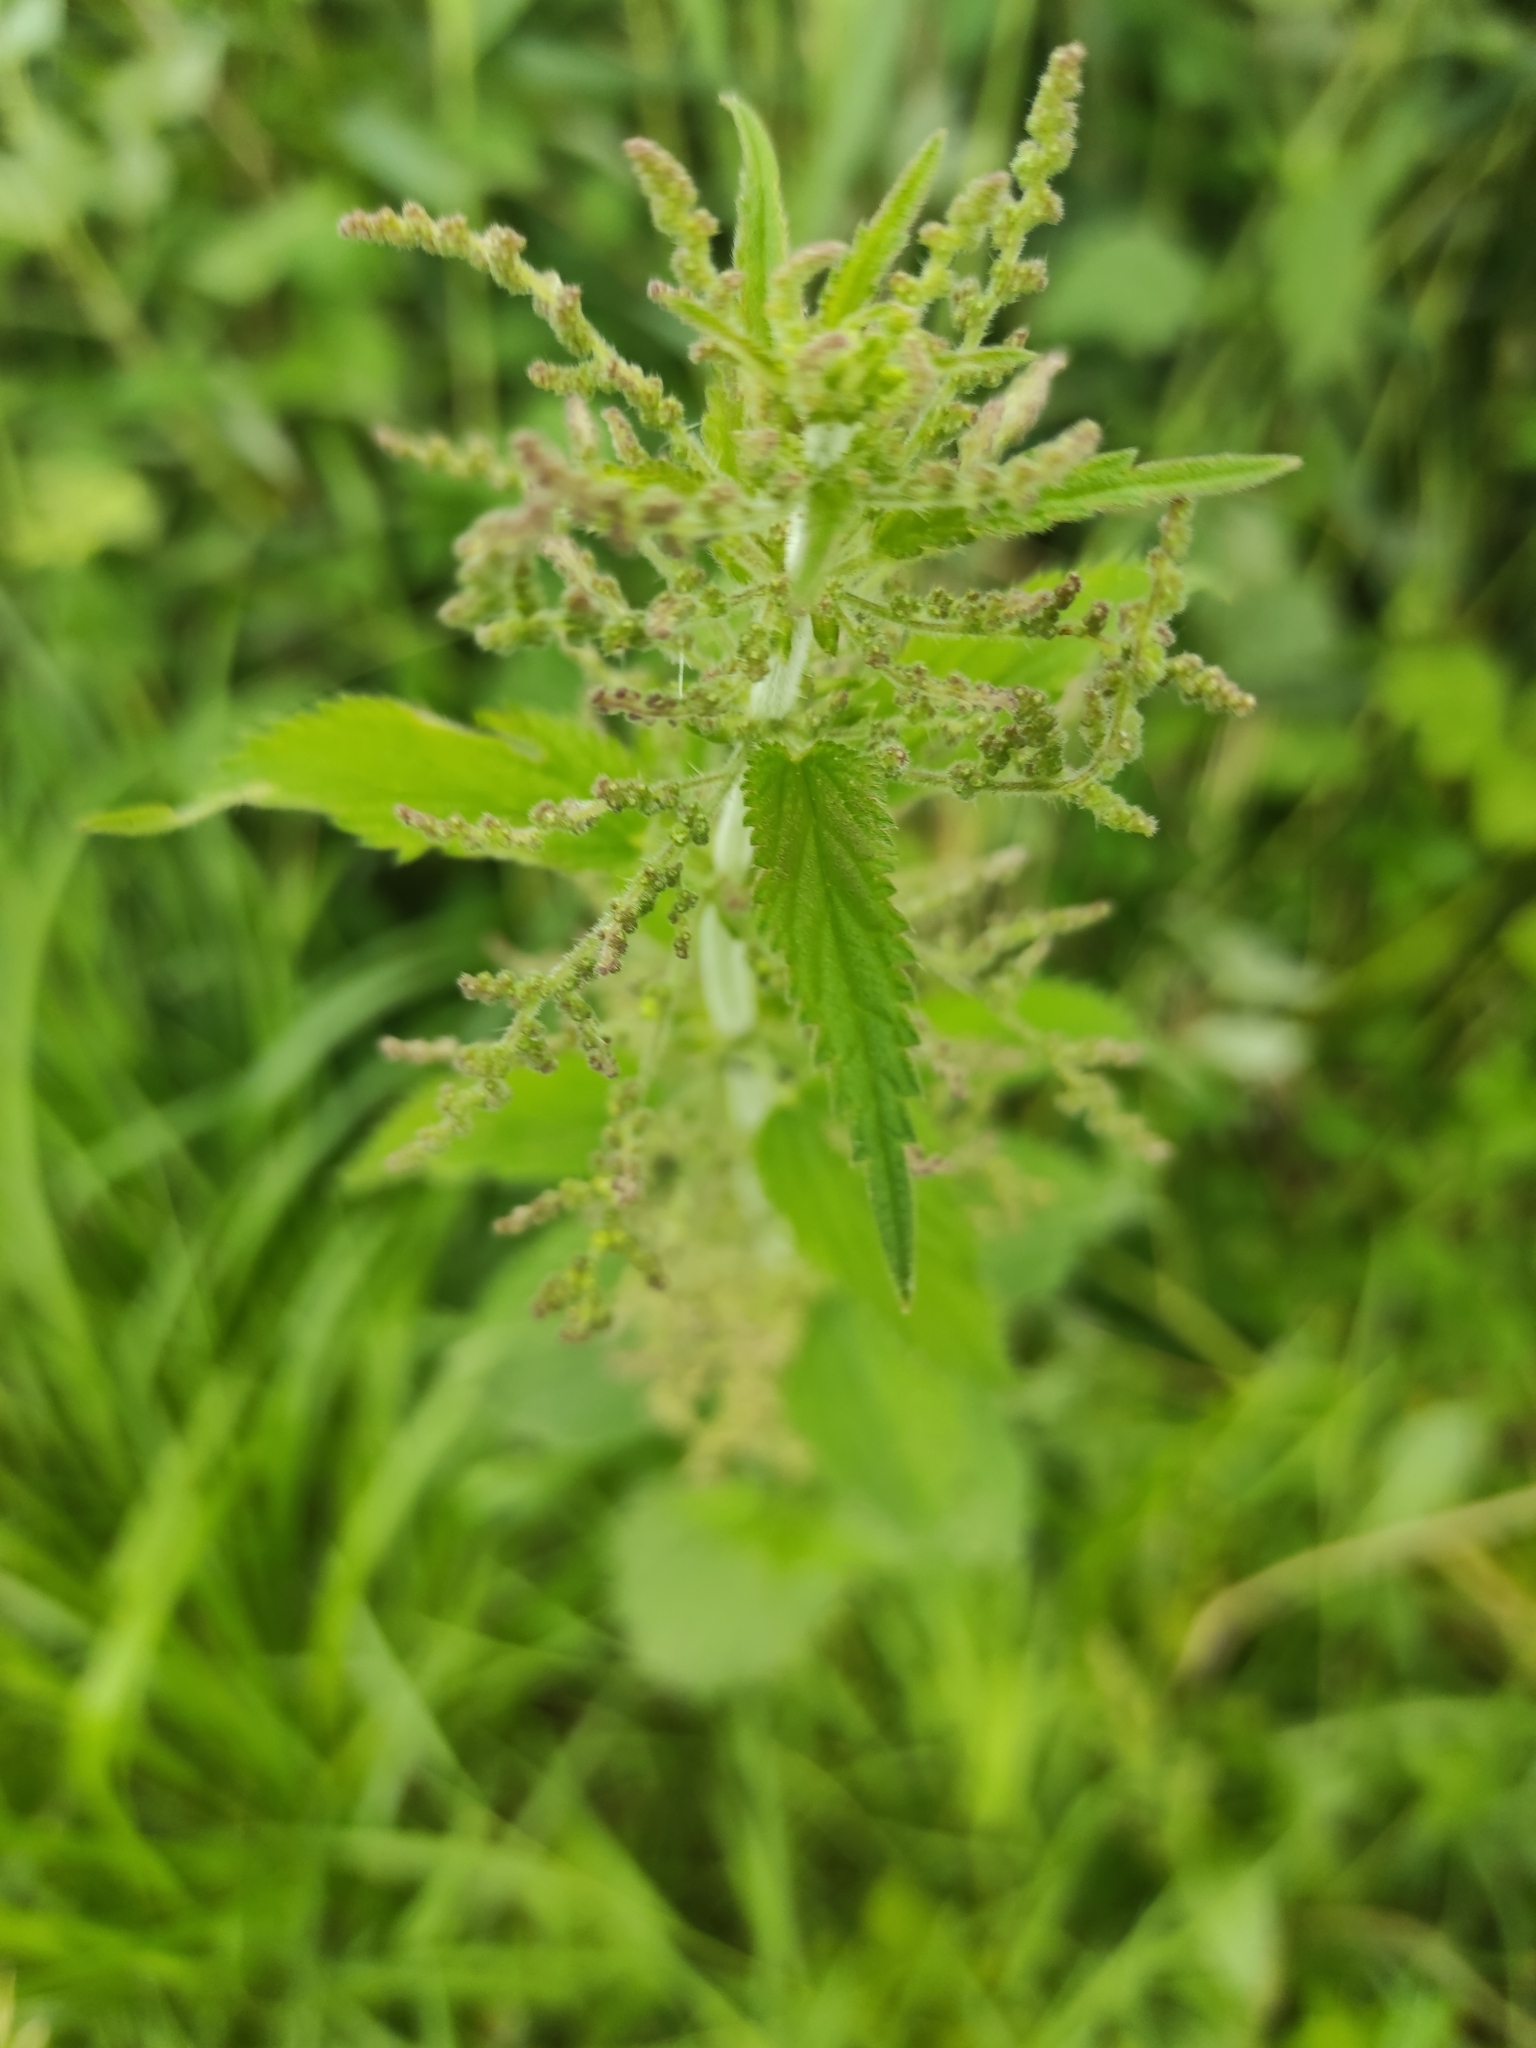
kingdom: Plantae
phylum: Tracheophyta
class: Magnoliopsida
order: Rosales
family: Urticaceae
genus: Urtica
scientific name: Urtica dioica
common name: Common nettle
